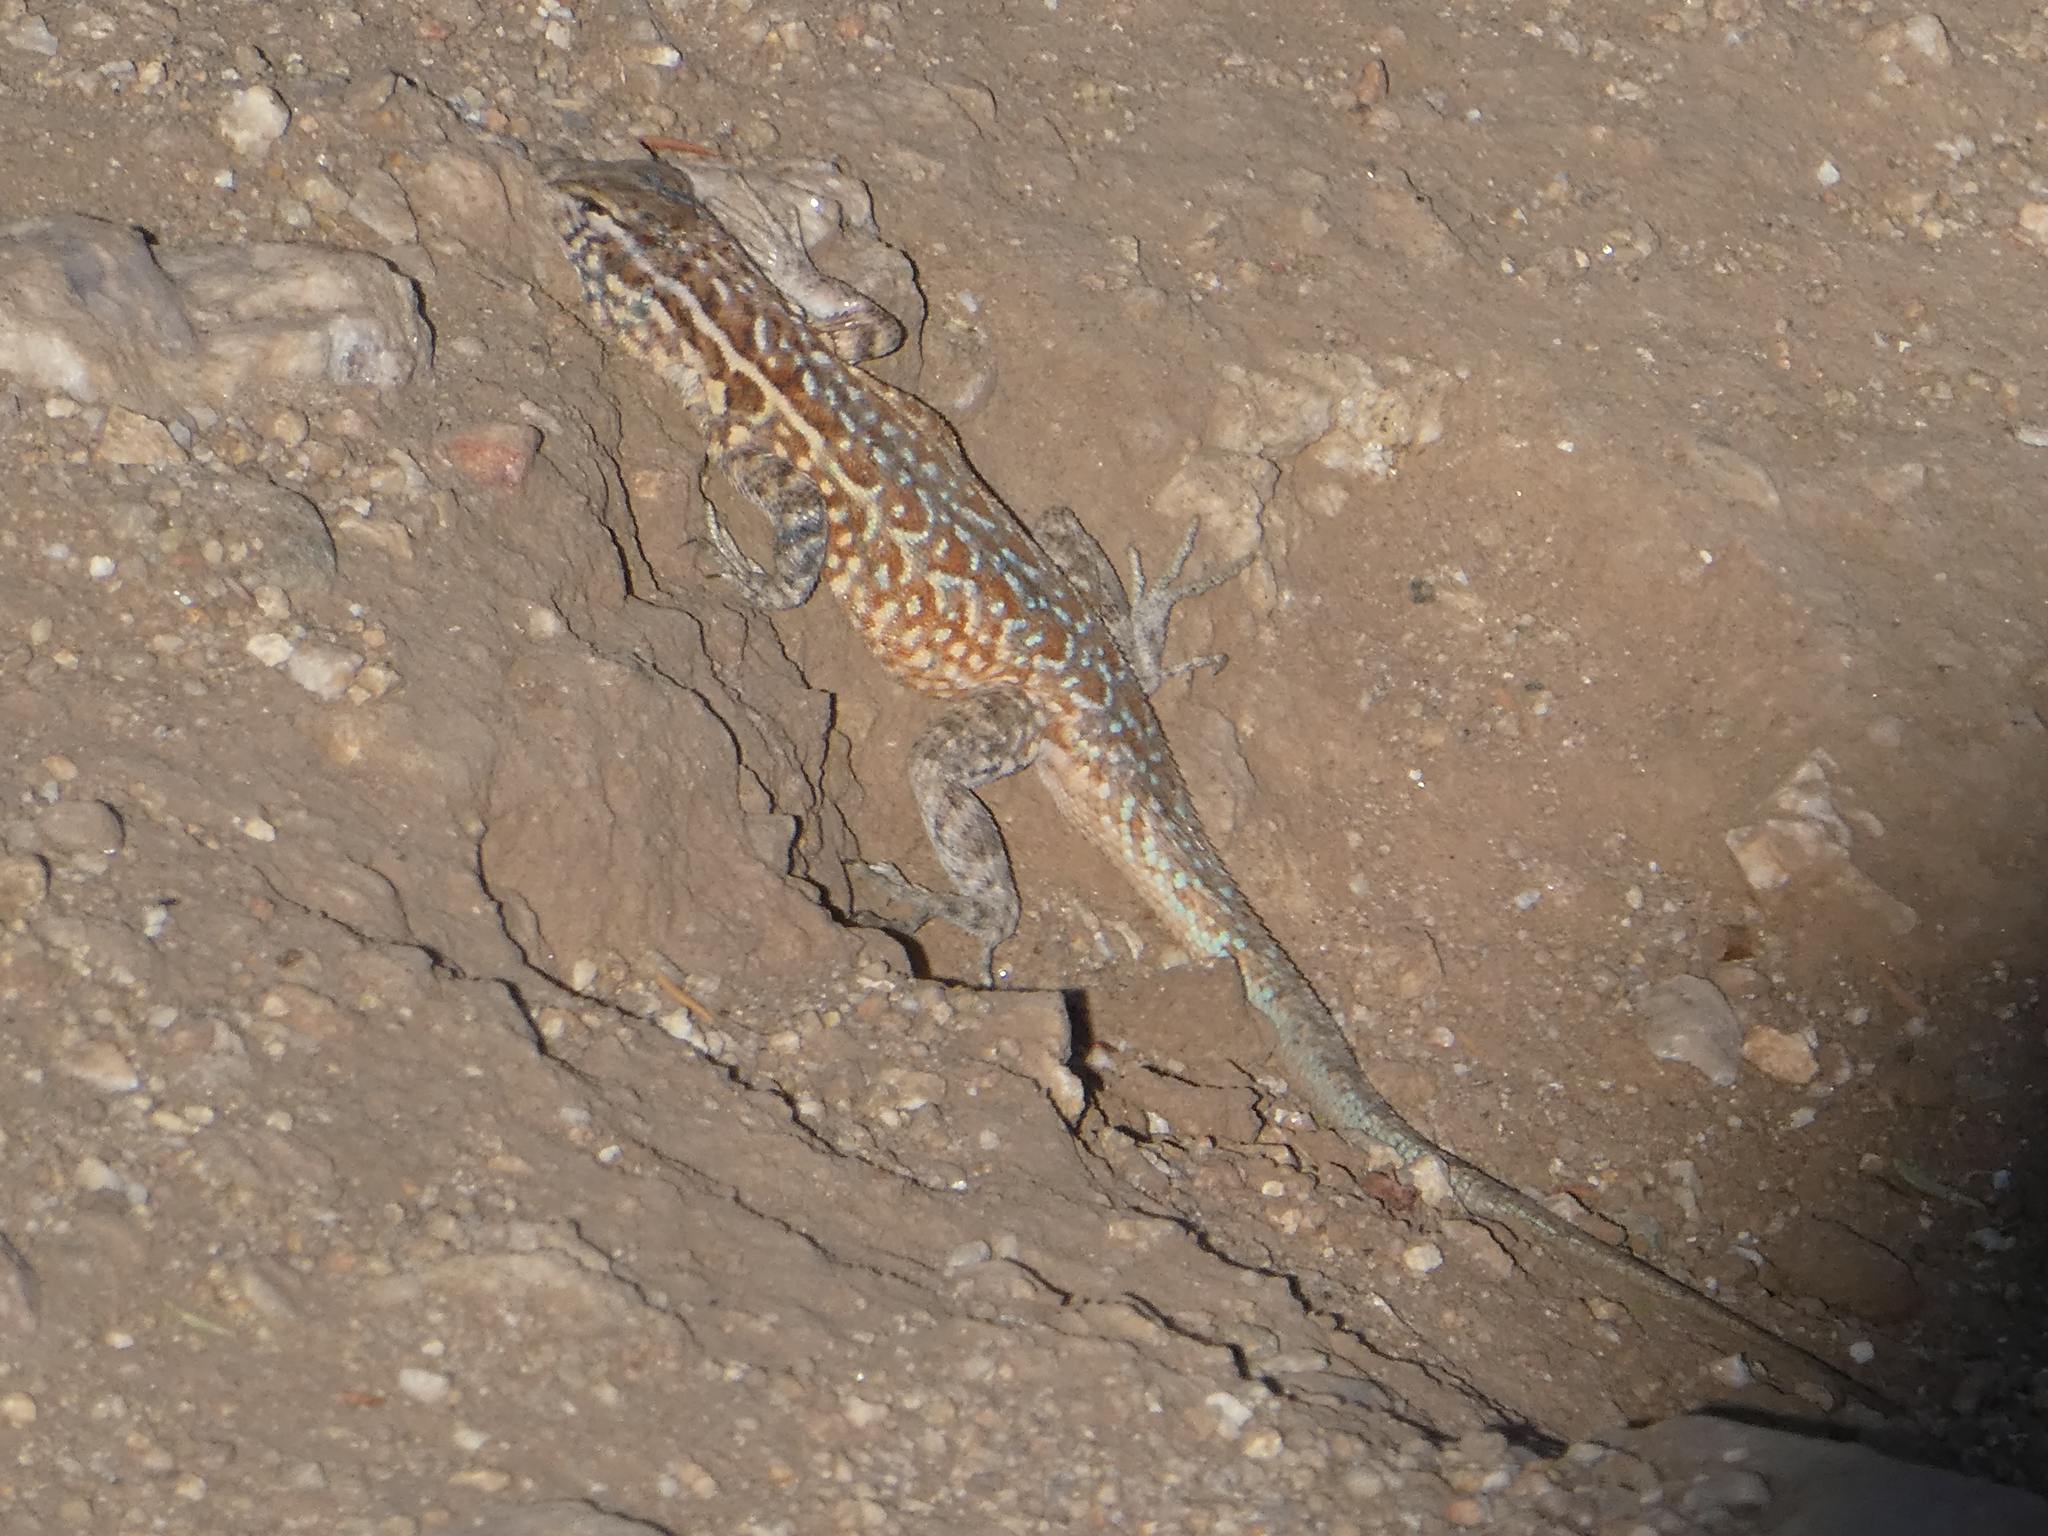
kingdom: Animalia
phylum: Chordata
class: Squamata
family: Phrynosomatidae
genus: Uta
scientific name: Uta stansburiana
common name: Side-blotched lizard
